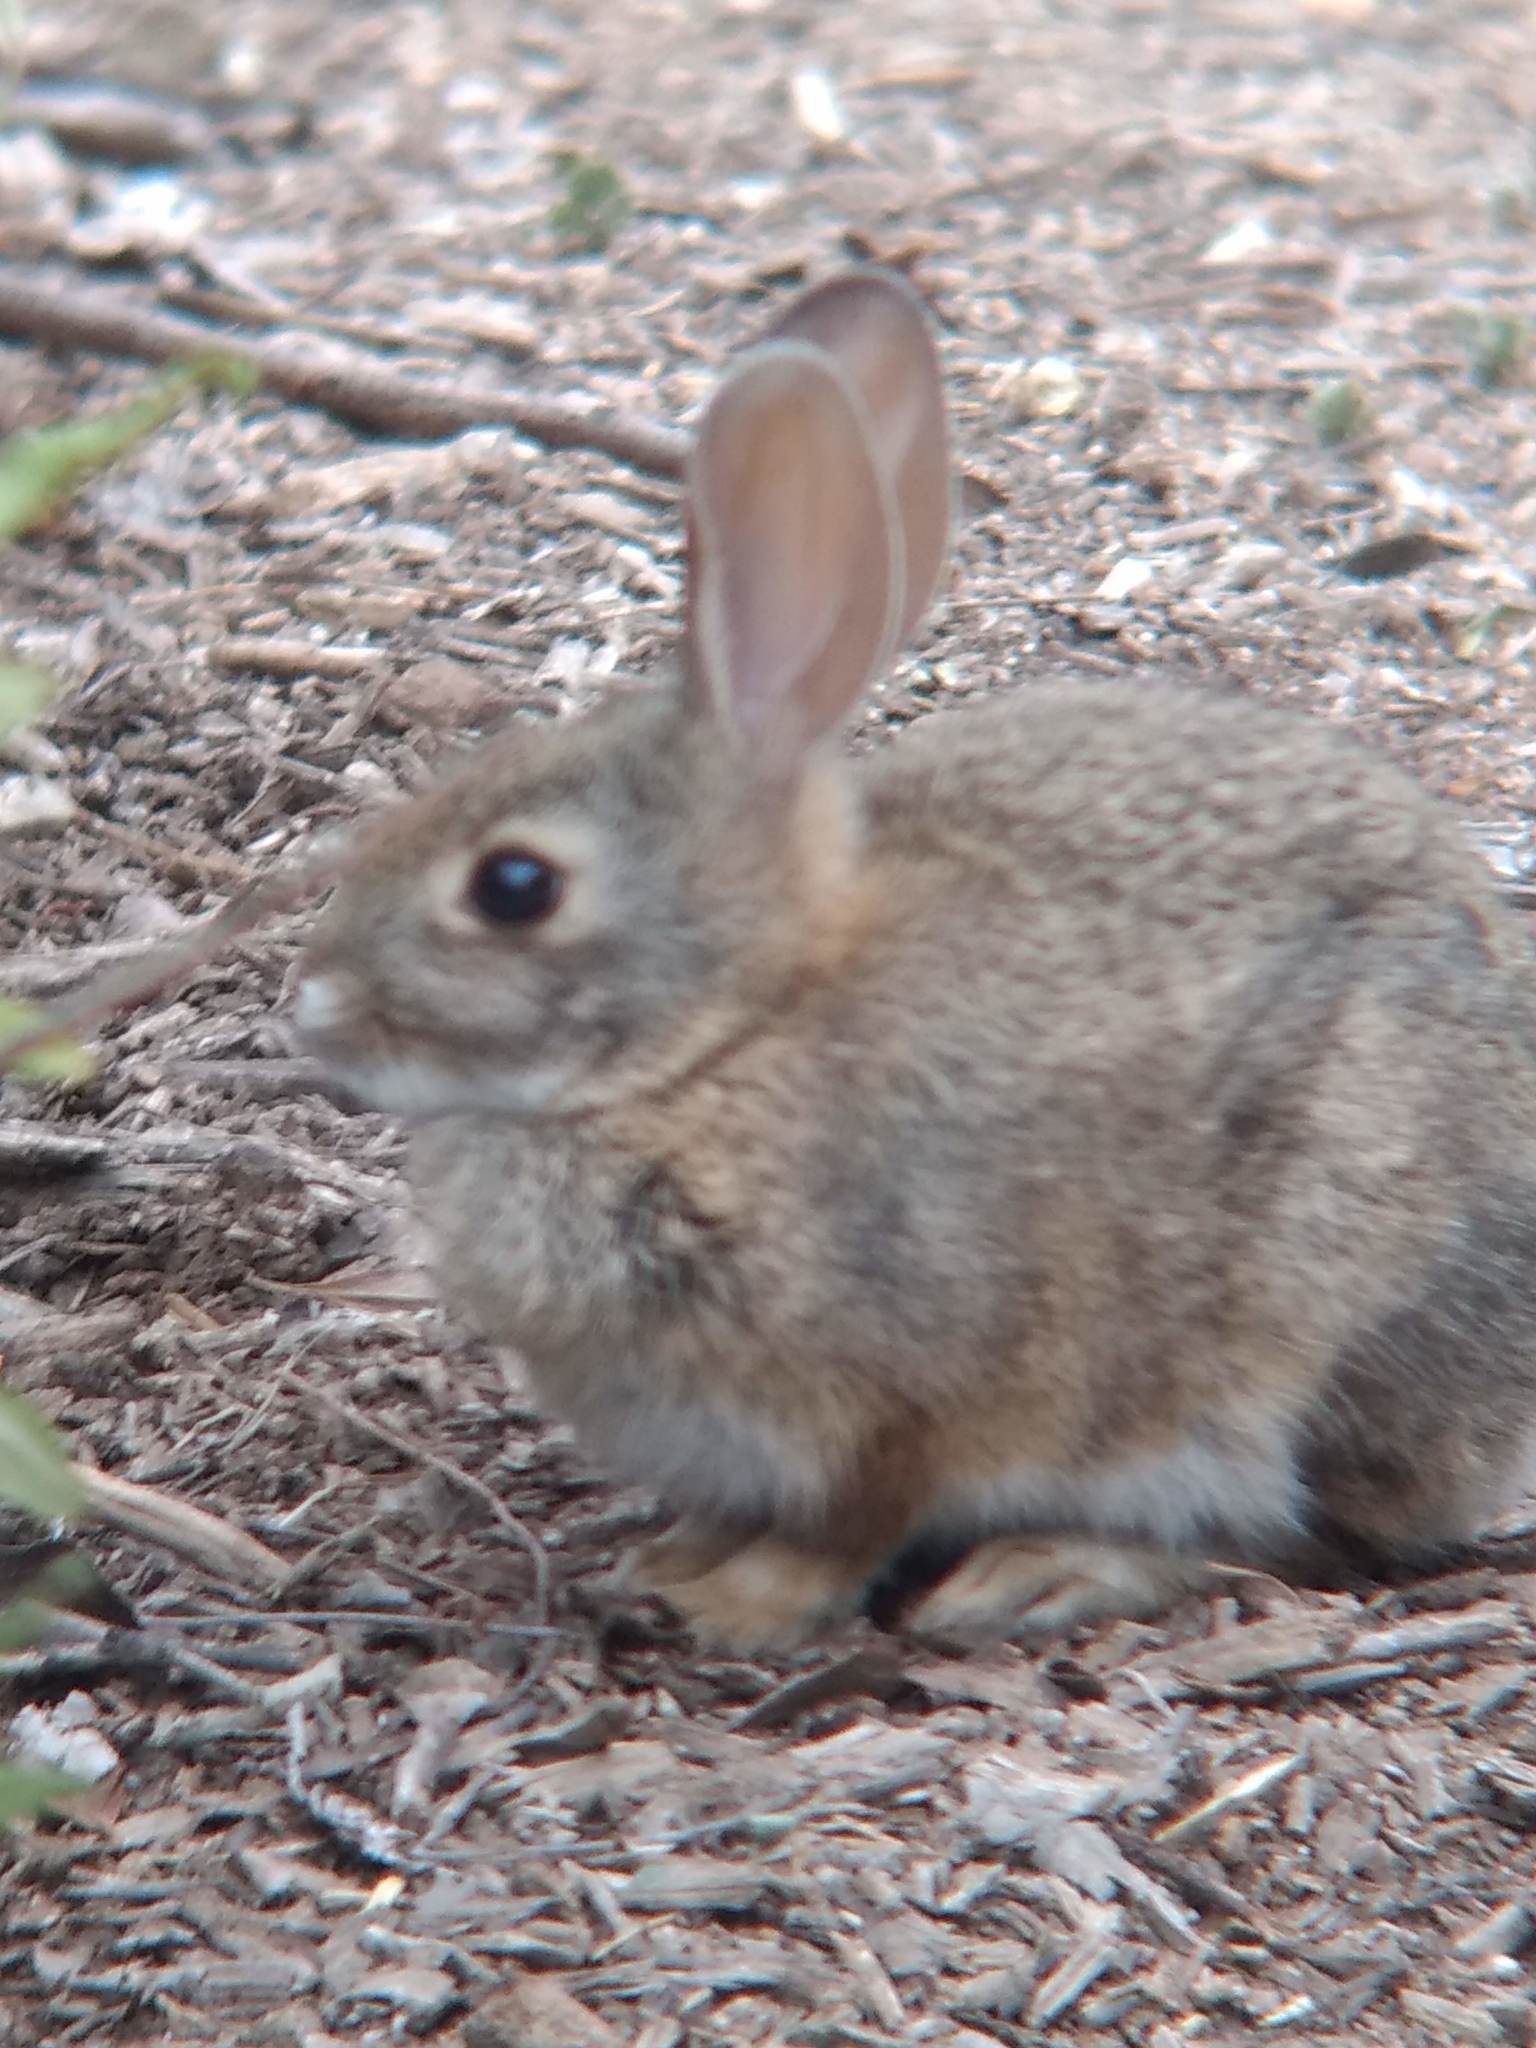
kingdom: Animalia
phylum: Chordata
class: Mammalia
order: Lagomorpha
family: Leporidae
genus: Sylvilagus
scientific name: Sylvilagus audubonii
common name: Desert cottontail
